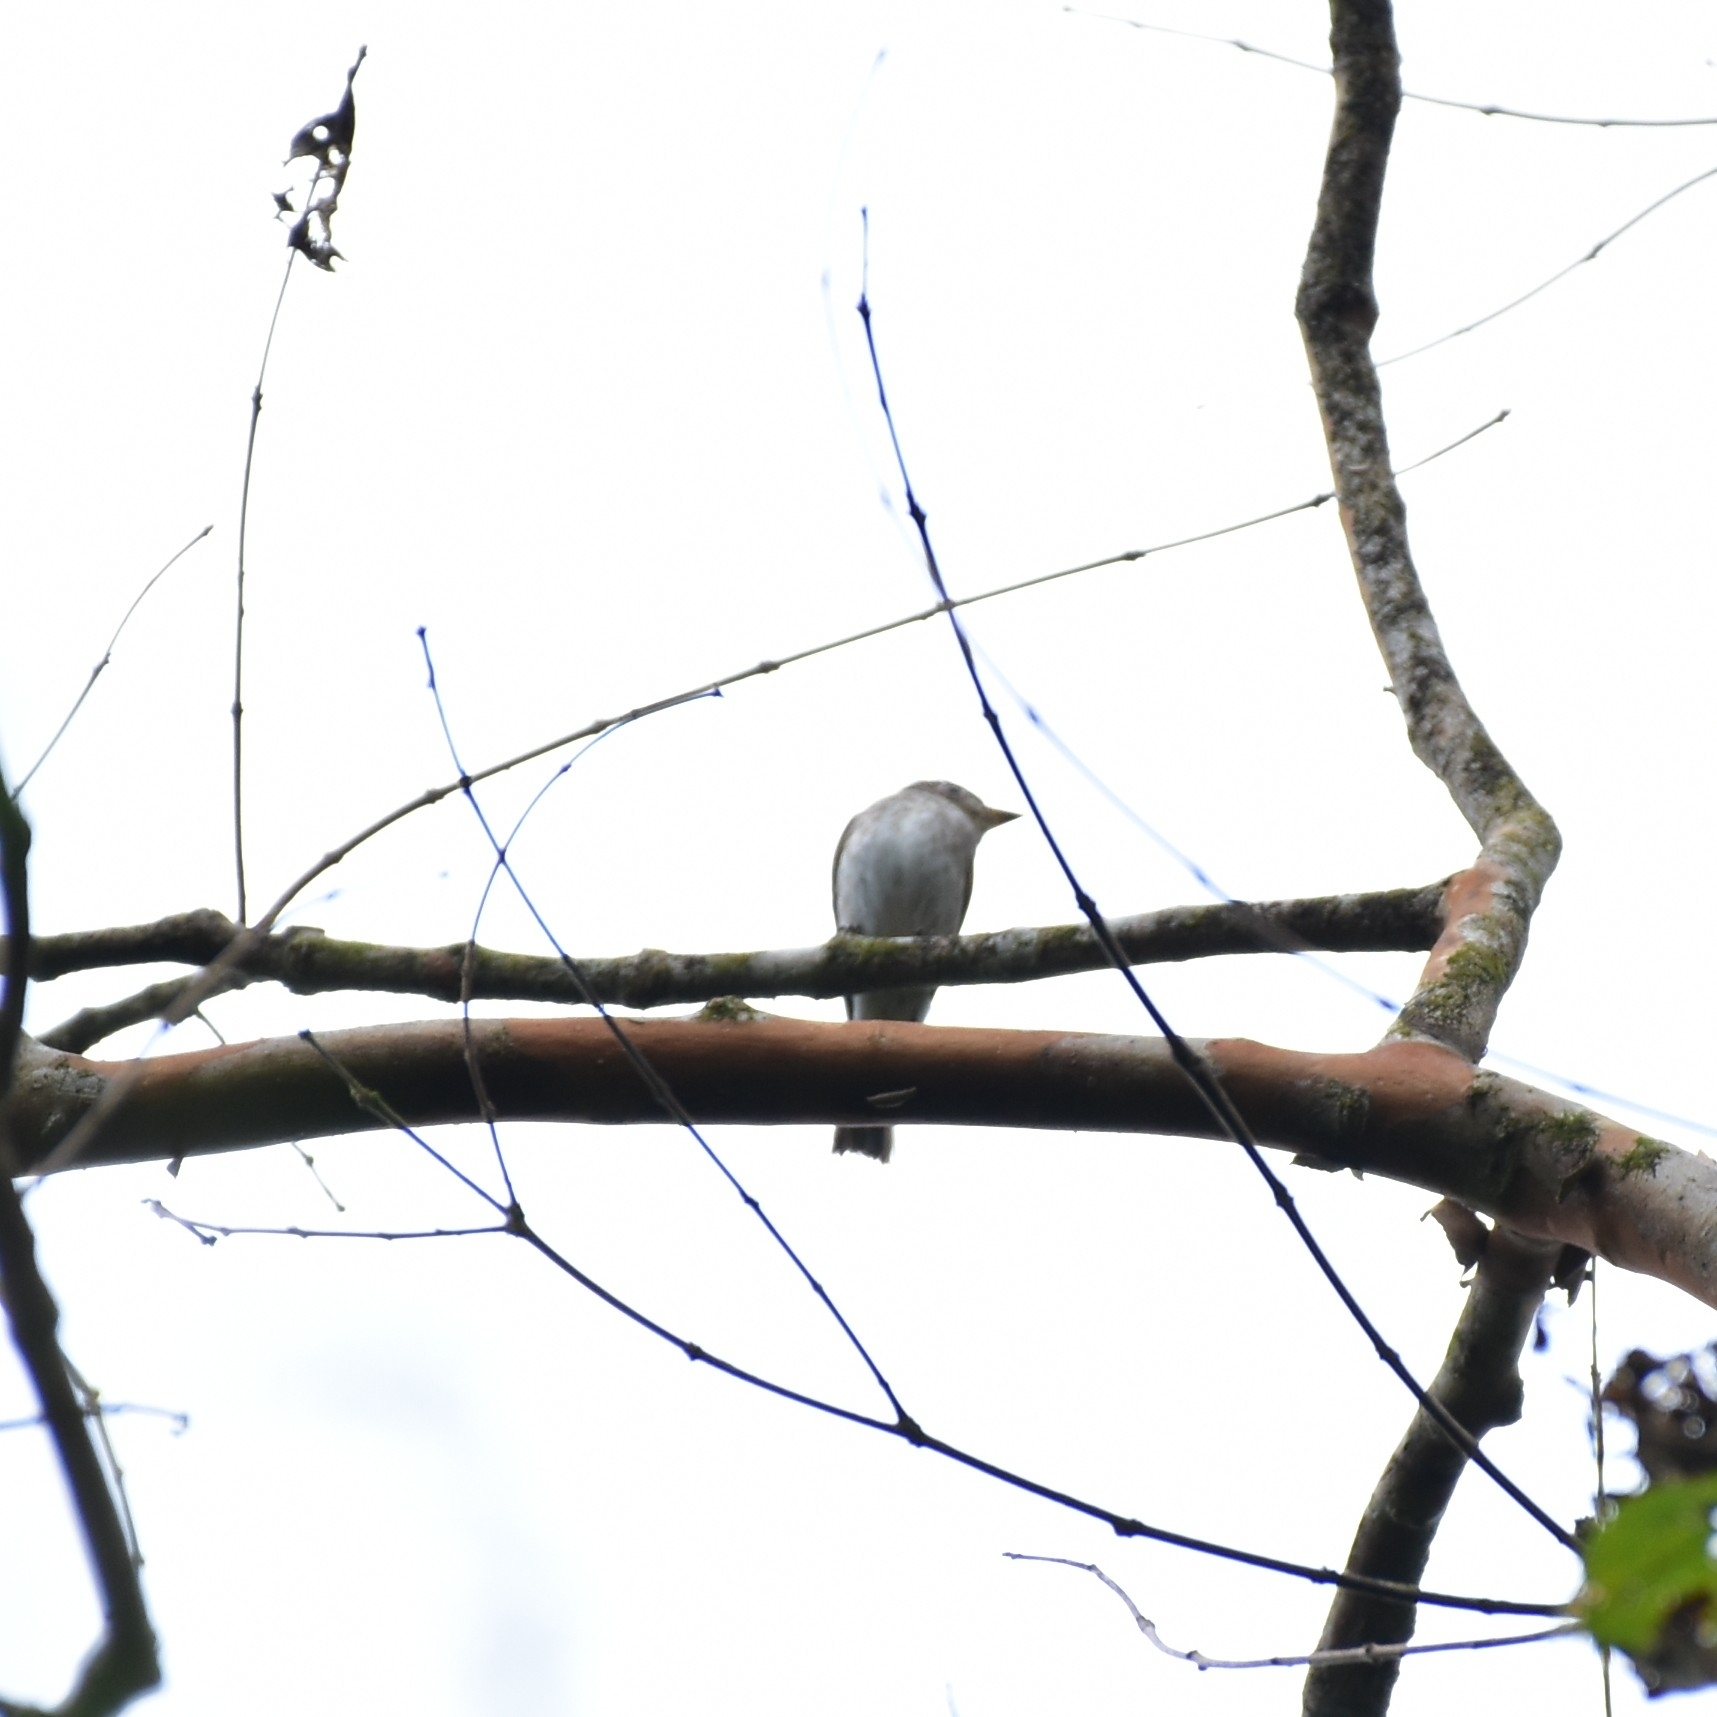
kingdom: Animalia
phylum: Chordata
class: Aves
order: Passeriformes
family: Muscicapidae
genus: Muscicapa
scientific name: Muscicapa latirostris
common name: Asian brown flycatcher
